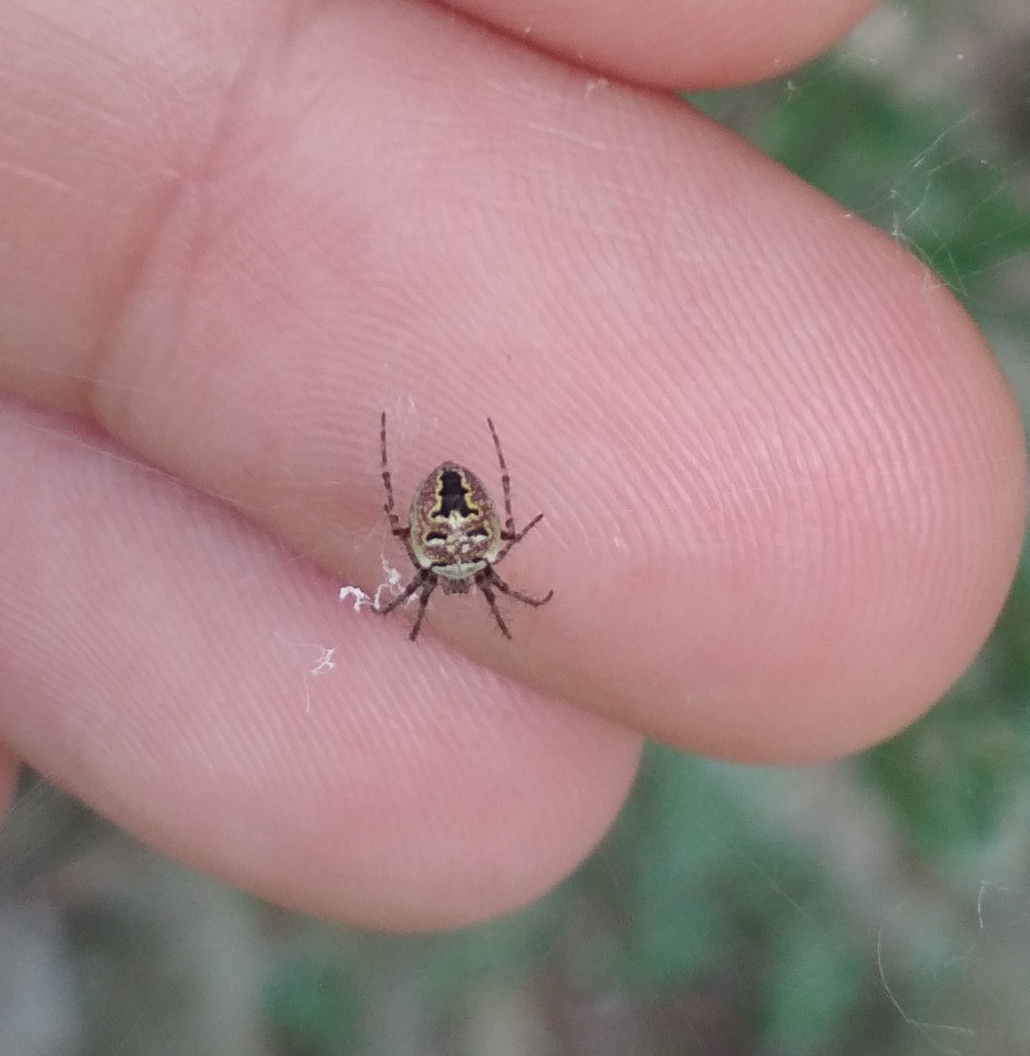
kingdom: Animalia
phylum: Arthropoda
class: Arachnida
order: Araneae
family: Araneidae
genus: Zilla
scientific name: Zilla diodia
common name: Zilla diodia
